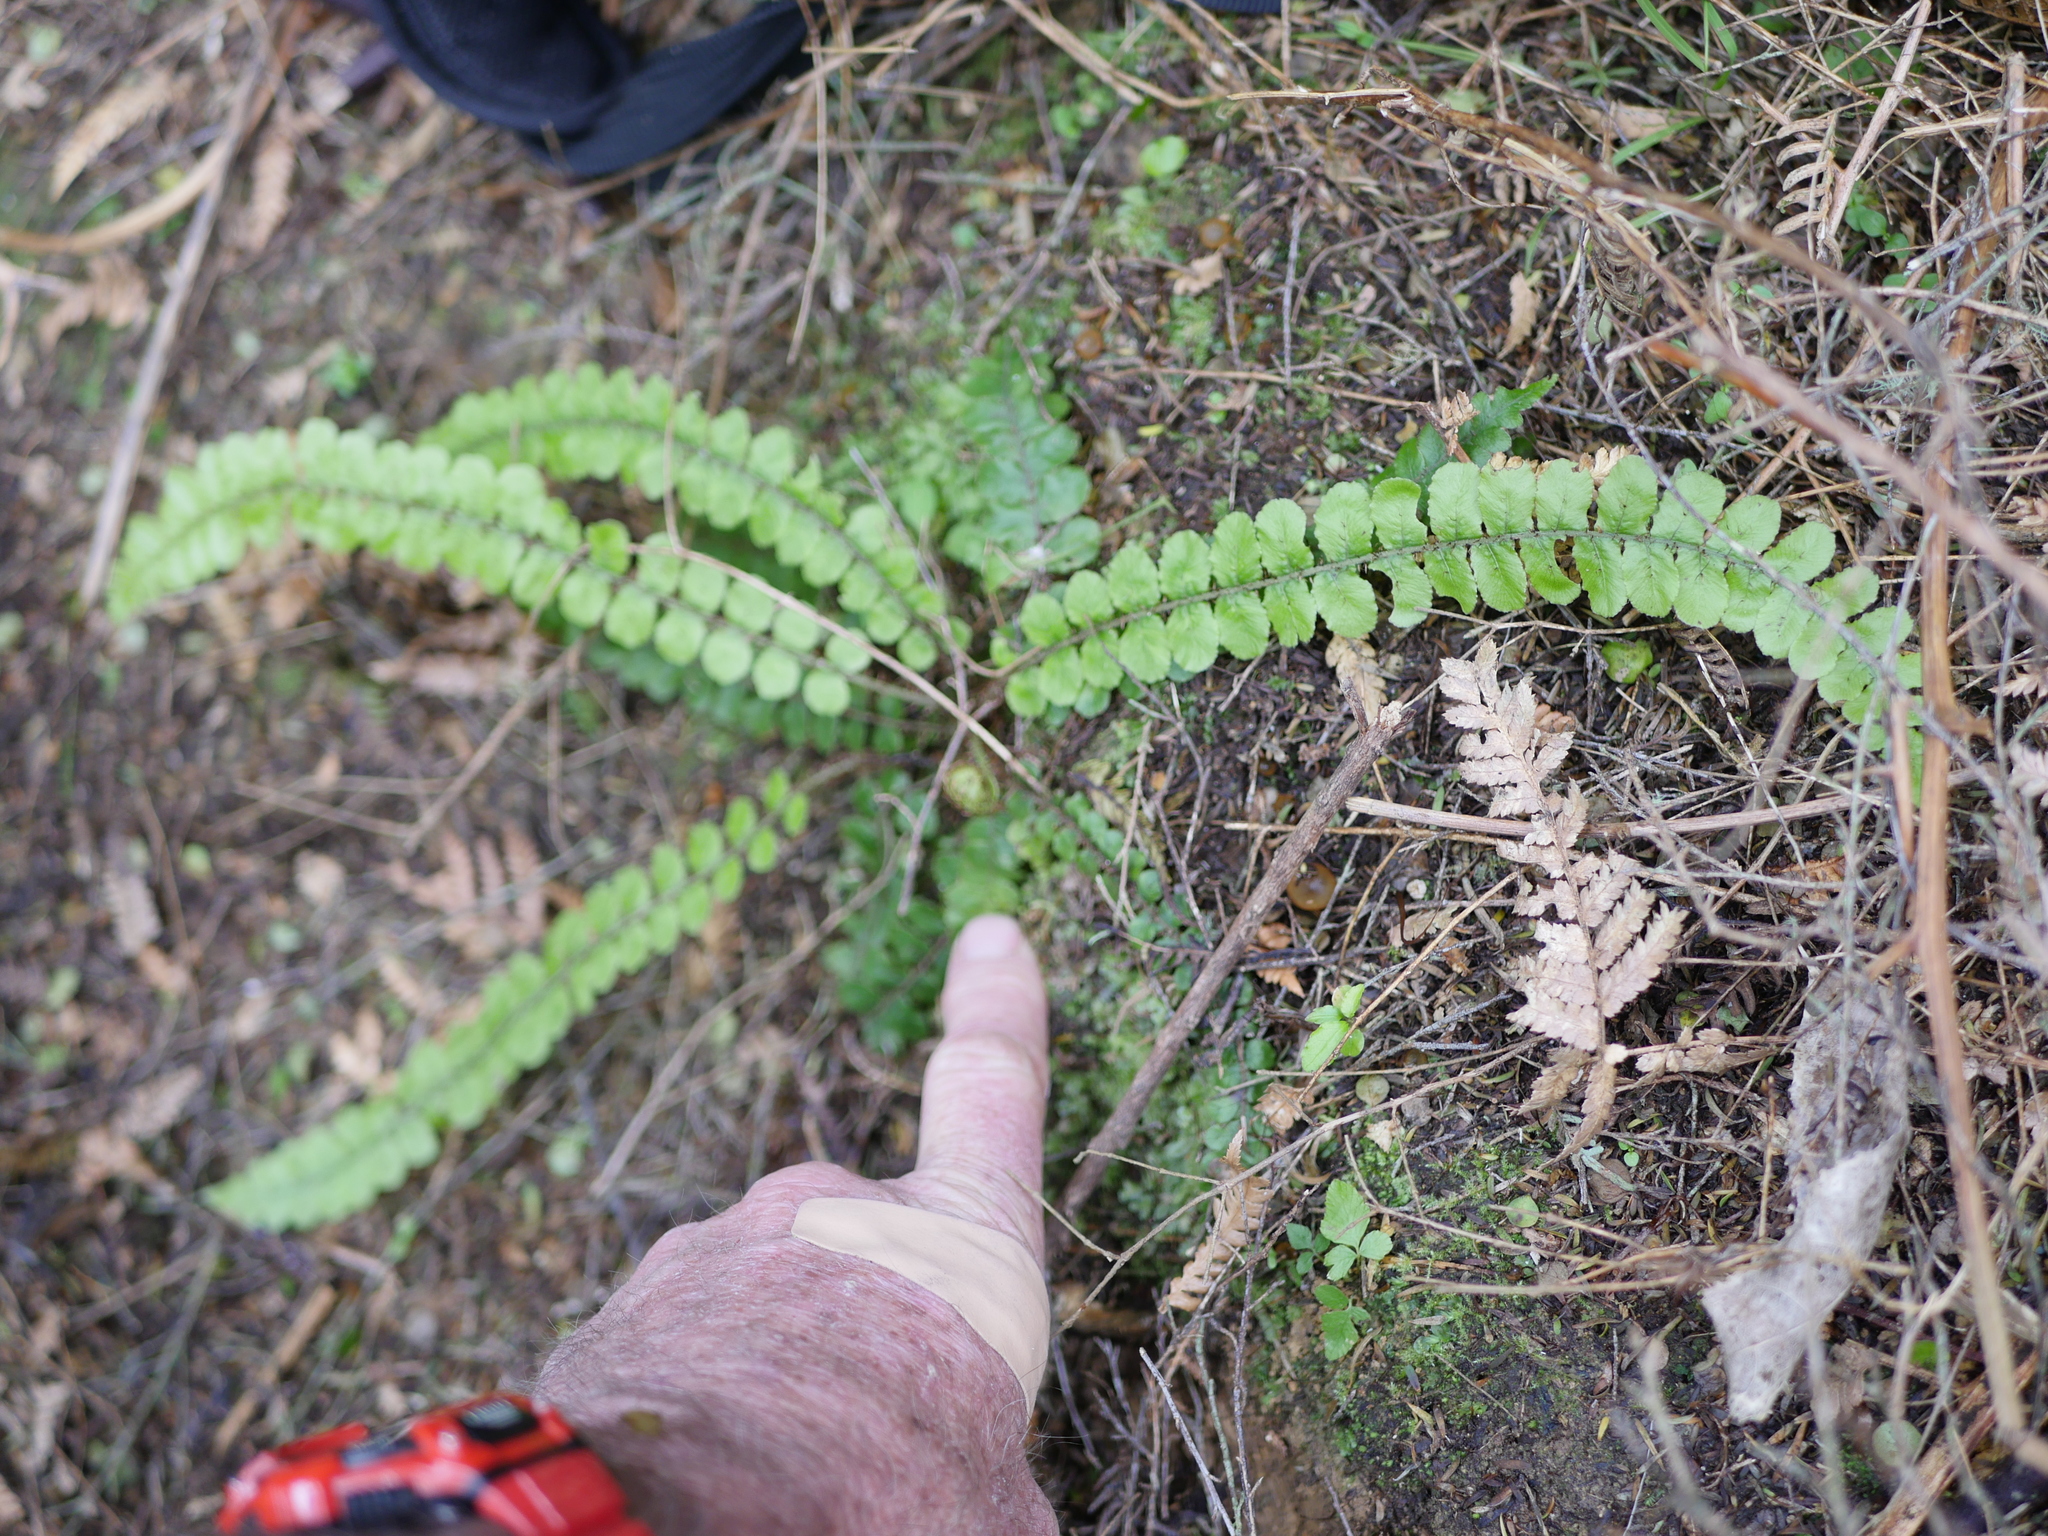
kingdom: Plantae
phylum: Tracheophyta
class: Polypodiopsida
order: Polypodiales
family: Blechnaceae
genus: Cranfillia
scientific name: Cranfillia fluviatilis
